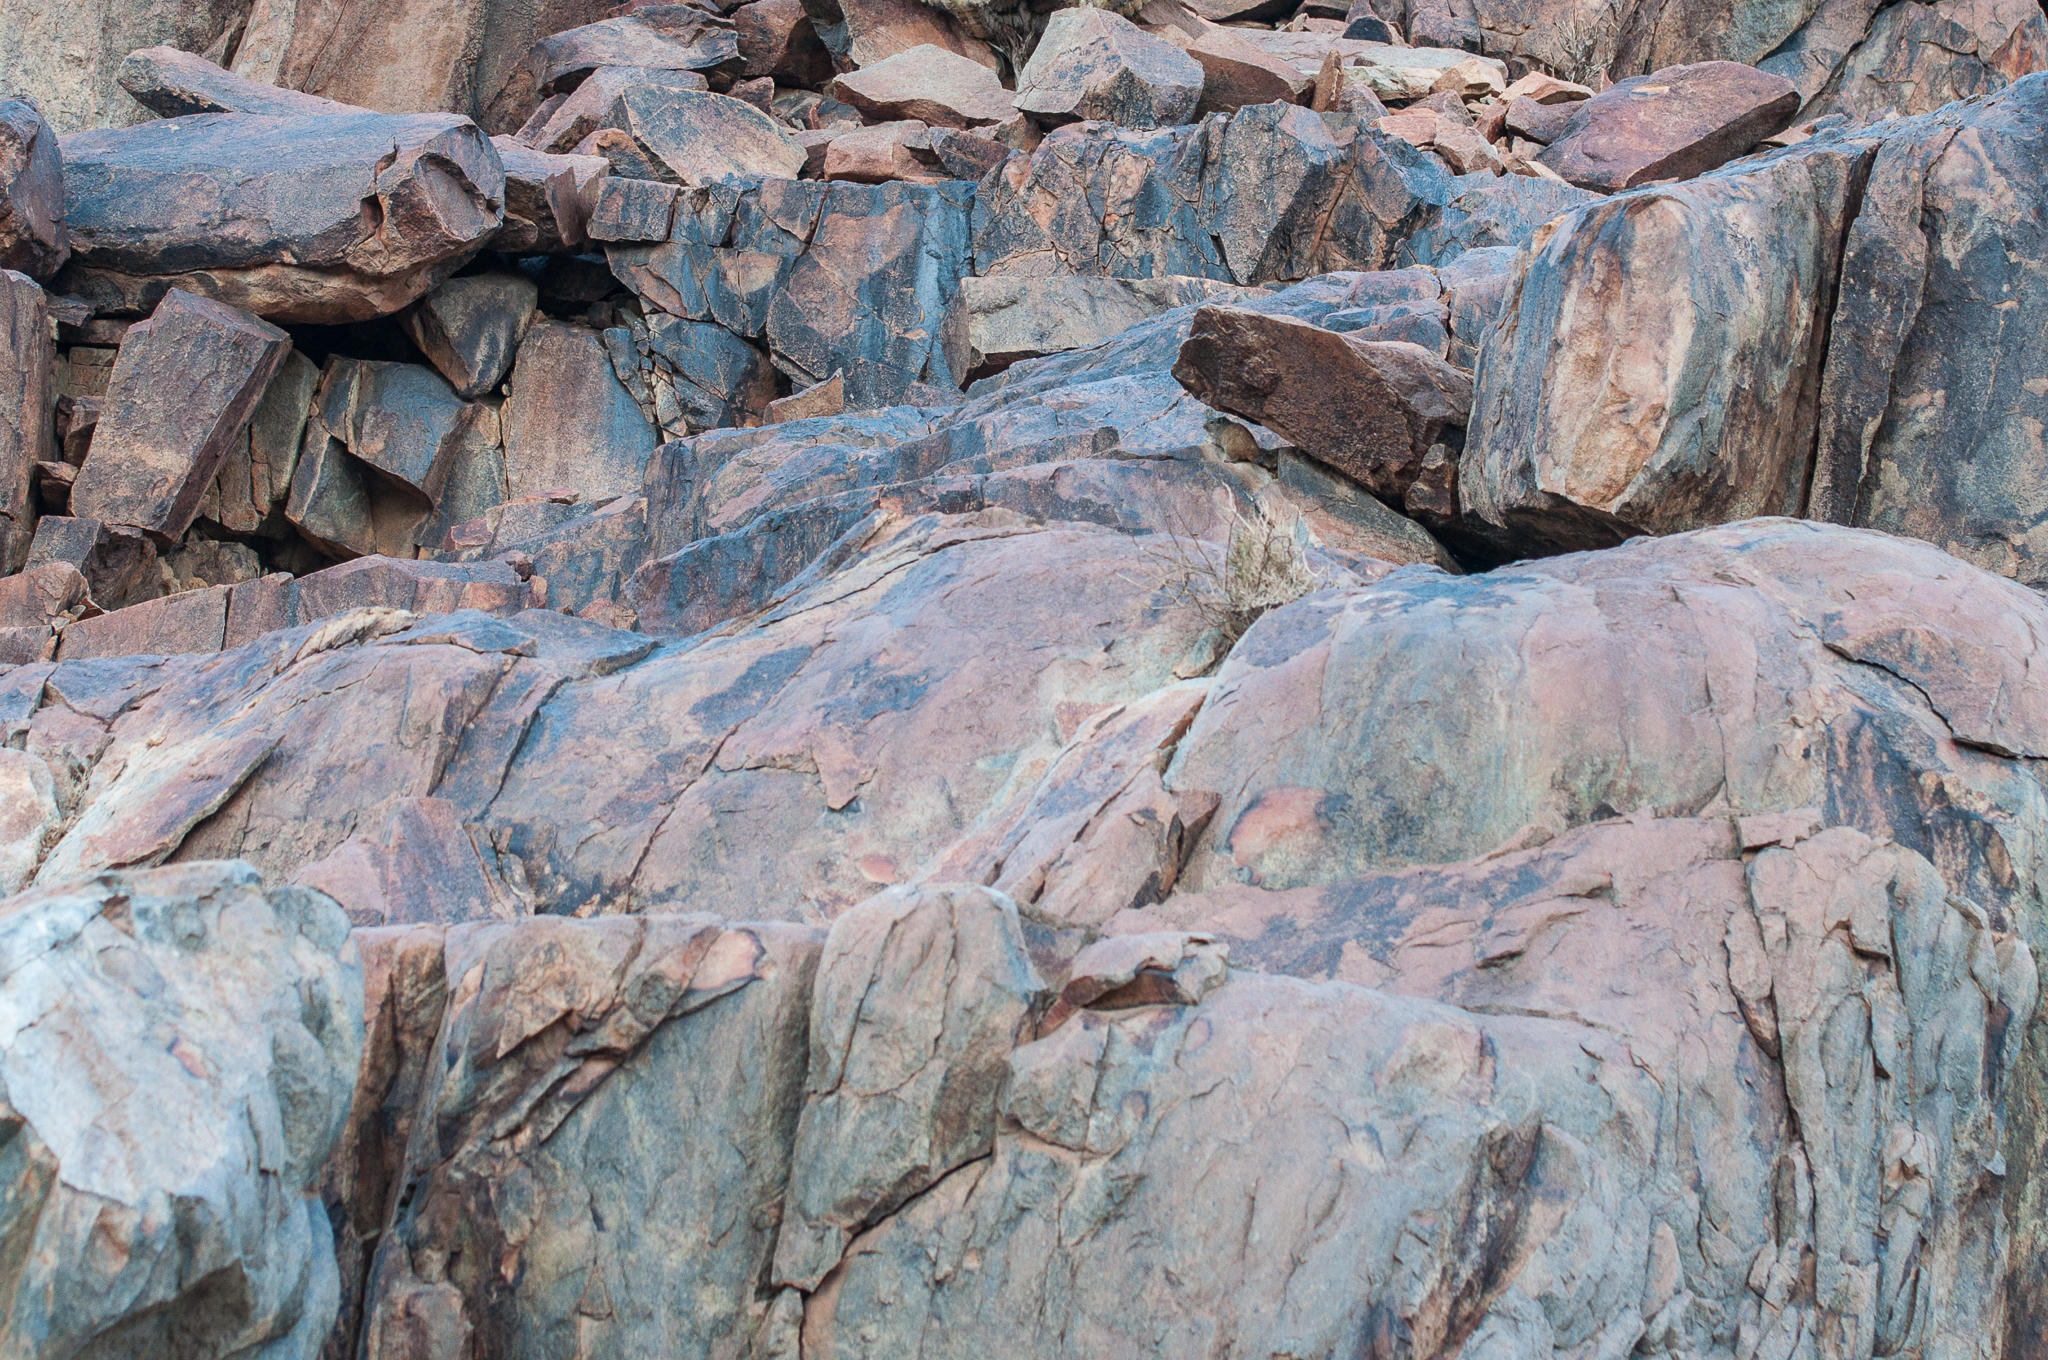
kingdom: Animalia
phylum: Chordata
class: Mammalia
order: Rodentia
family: Petromuridae
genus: Petromus
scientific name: Petromus typicus
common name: Dassie rat
